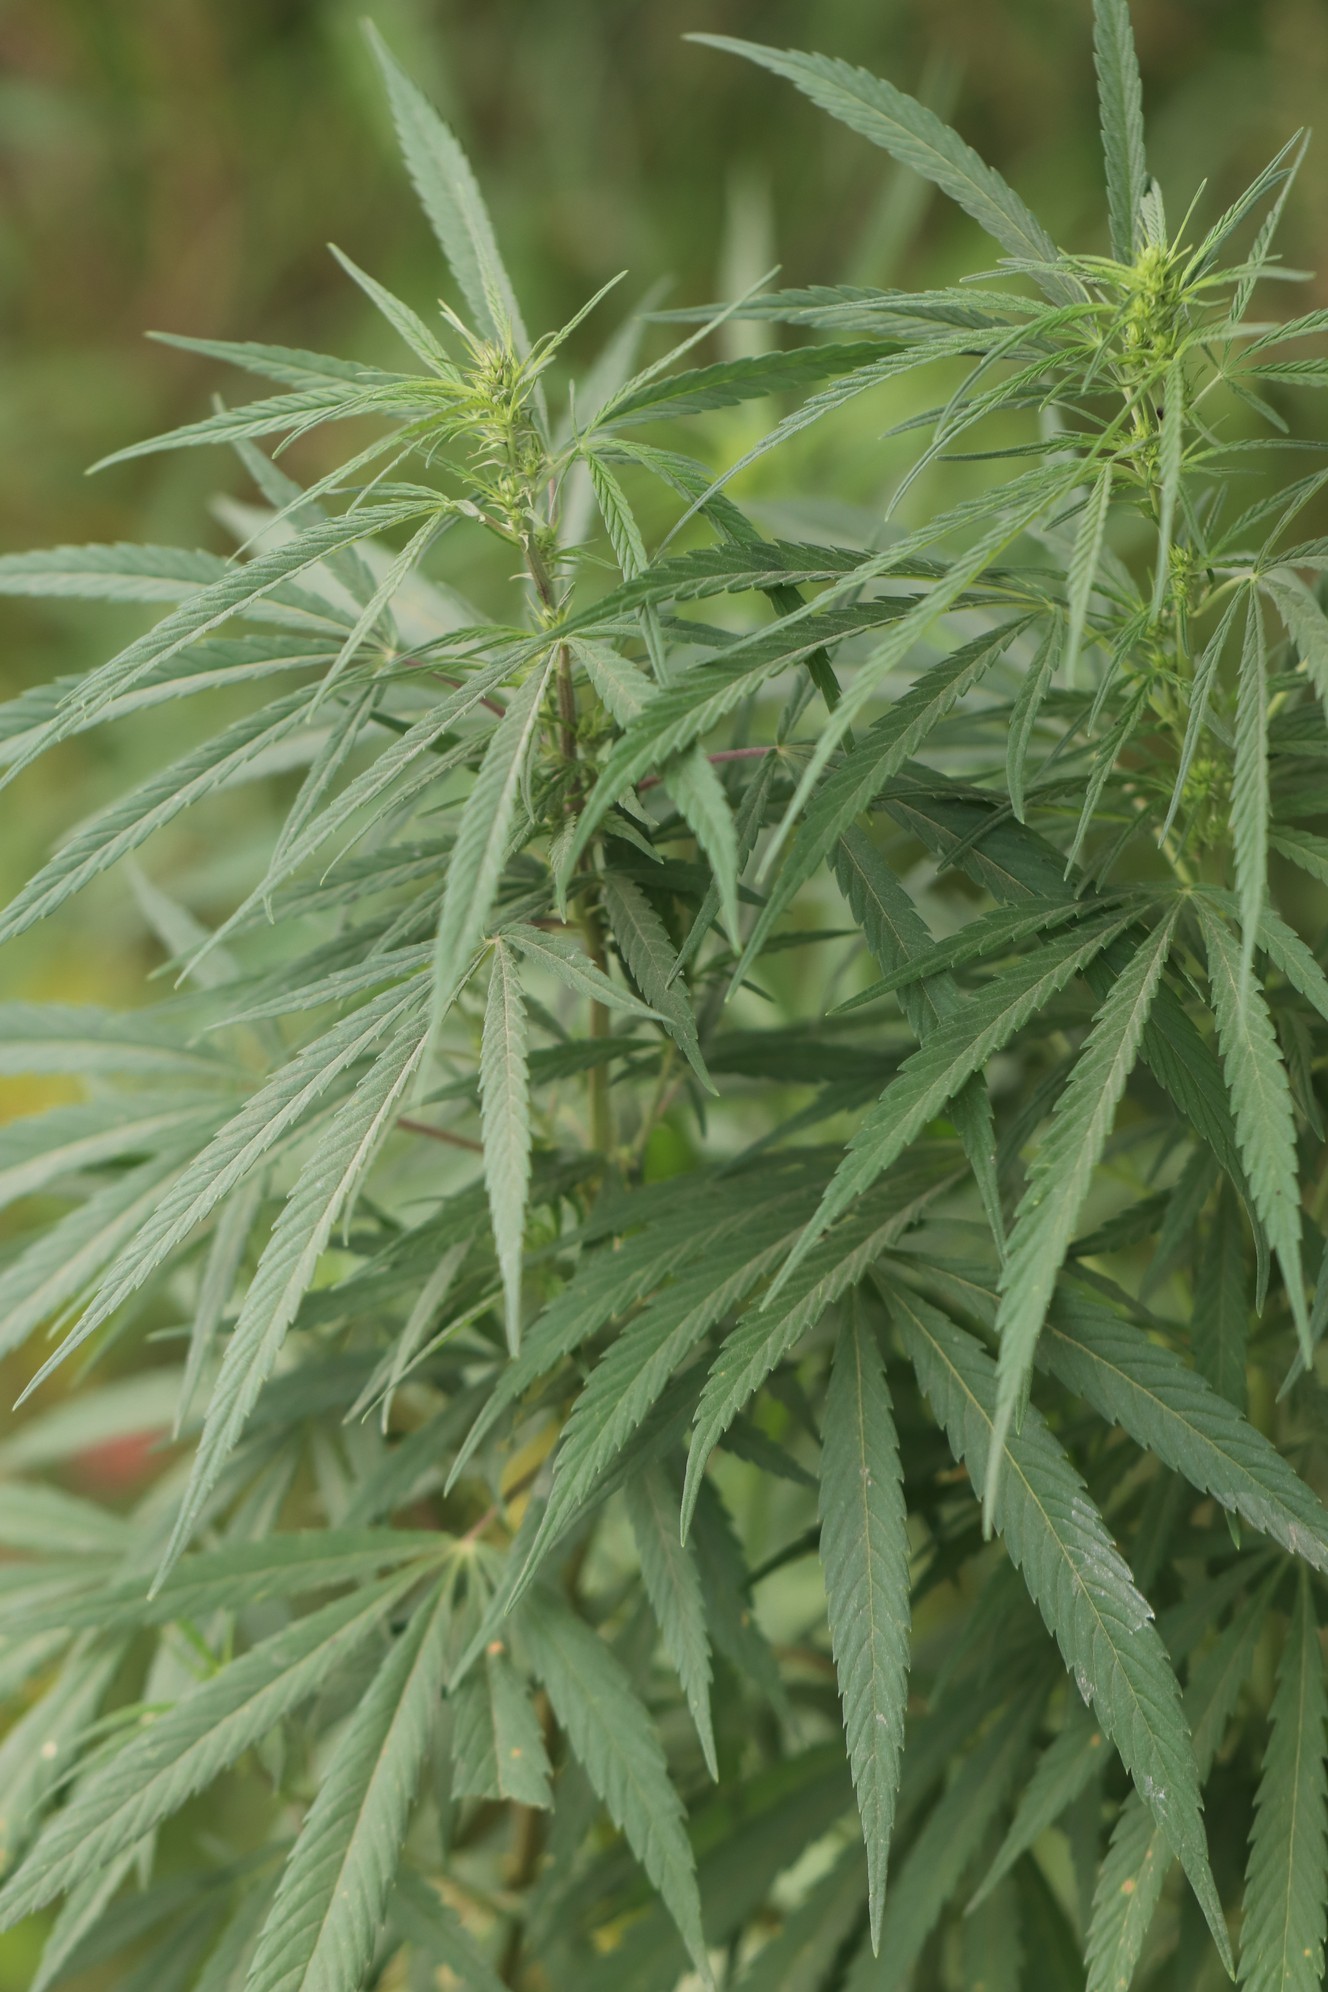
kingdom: Plantae
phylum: Tracheophyta
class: Magnoliopsida
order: Rosales
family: Cannabaceae
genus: Cannabis
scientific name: Cannabis sativa
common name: Hemp
